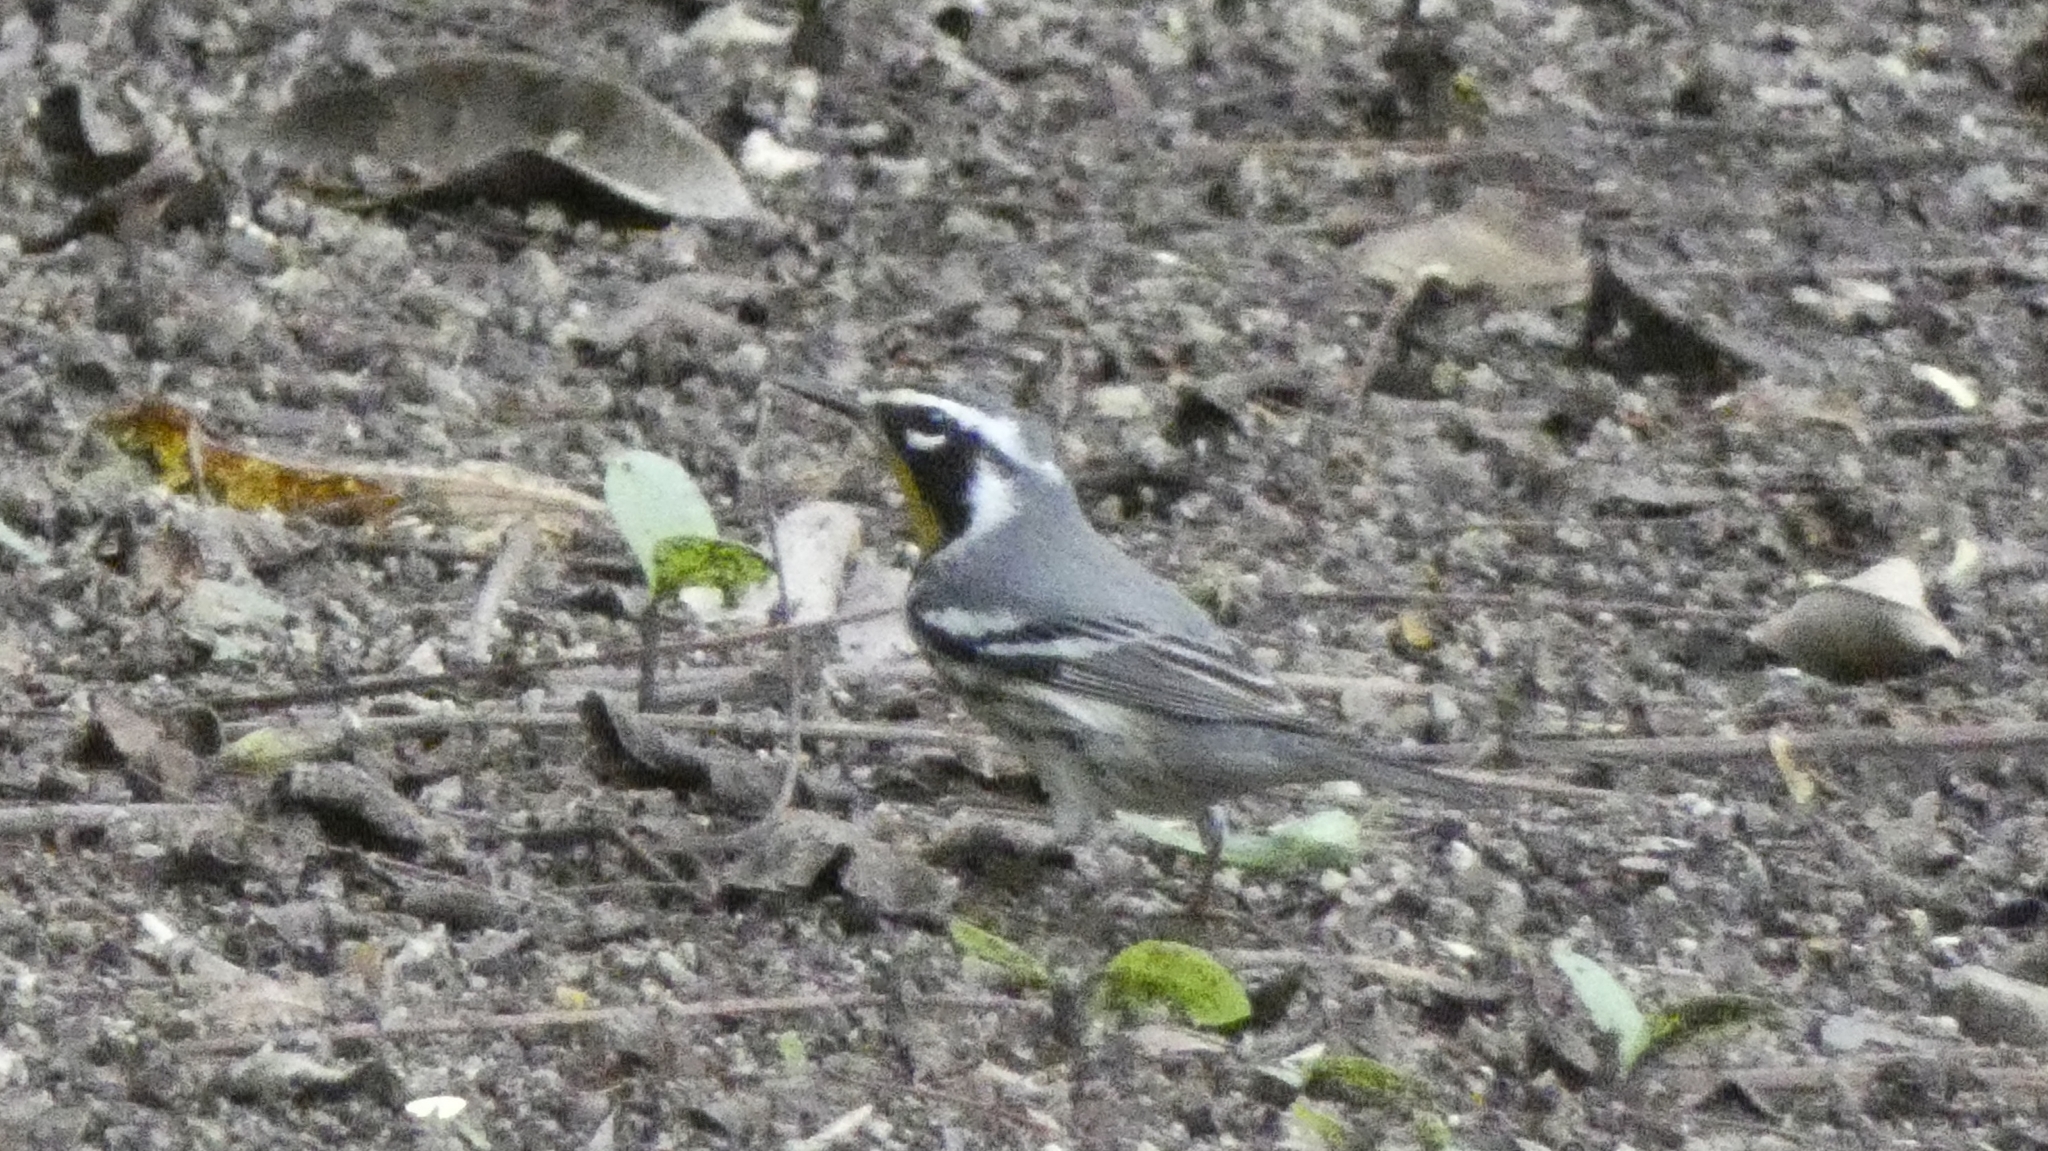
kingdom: Animalia
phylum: Chordata
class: Aves
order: Passeriformes
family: Parulidae
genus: Setophaga
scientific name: Setophaga dominica
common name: Yellow-throated warbler
